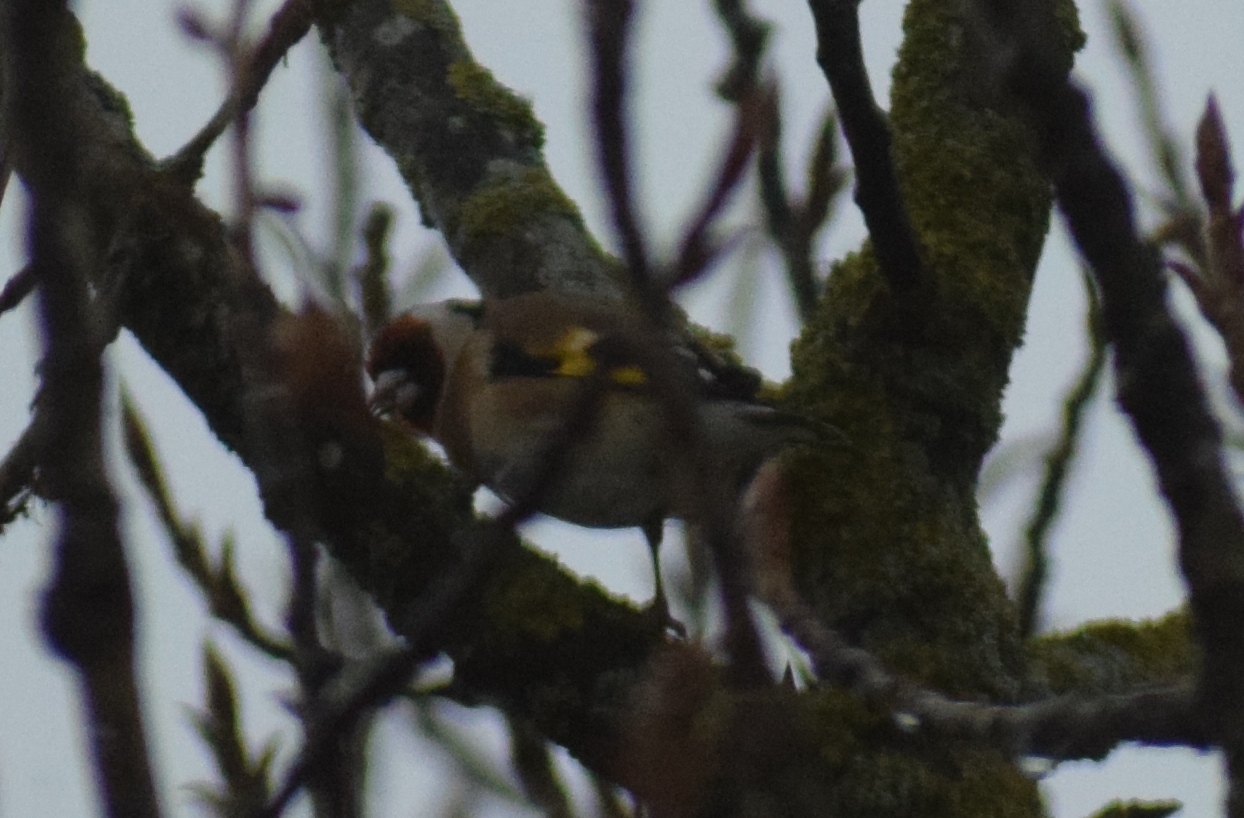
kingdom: Animalia
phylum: Chordata
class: Aves
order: Passeriformes
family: Fringillidae
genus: Carduelis
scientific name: Carduelis carduelis
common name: European goldfinch
